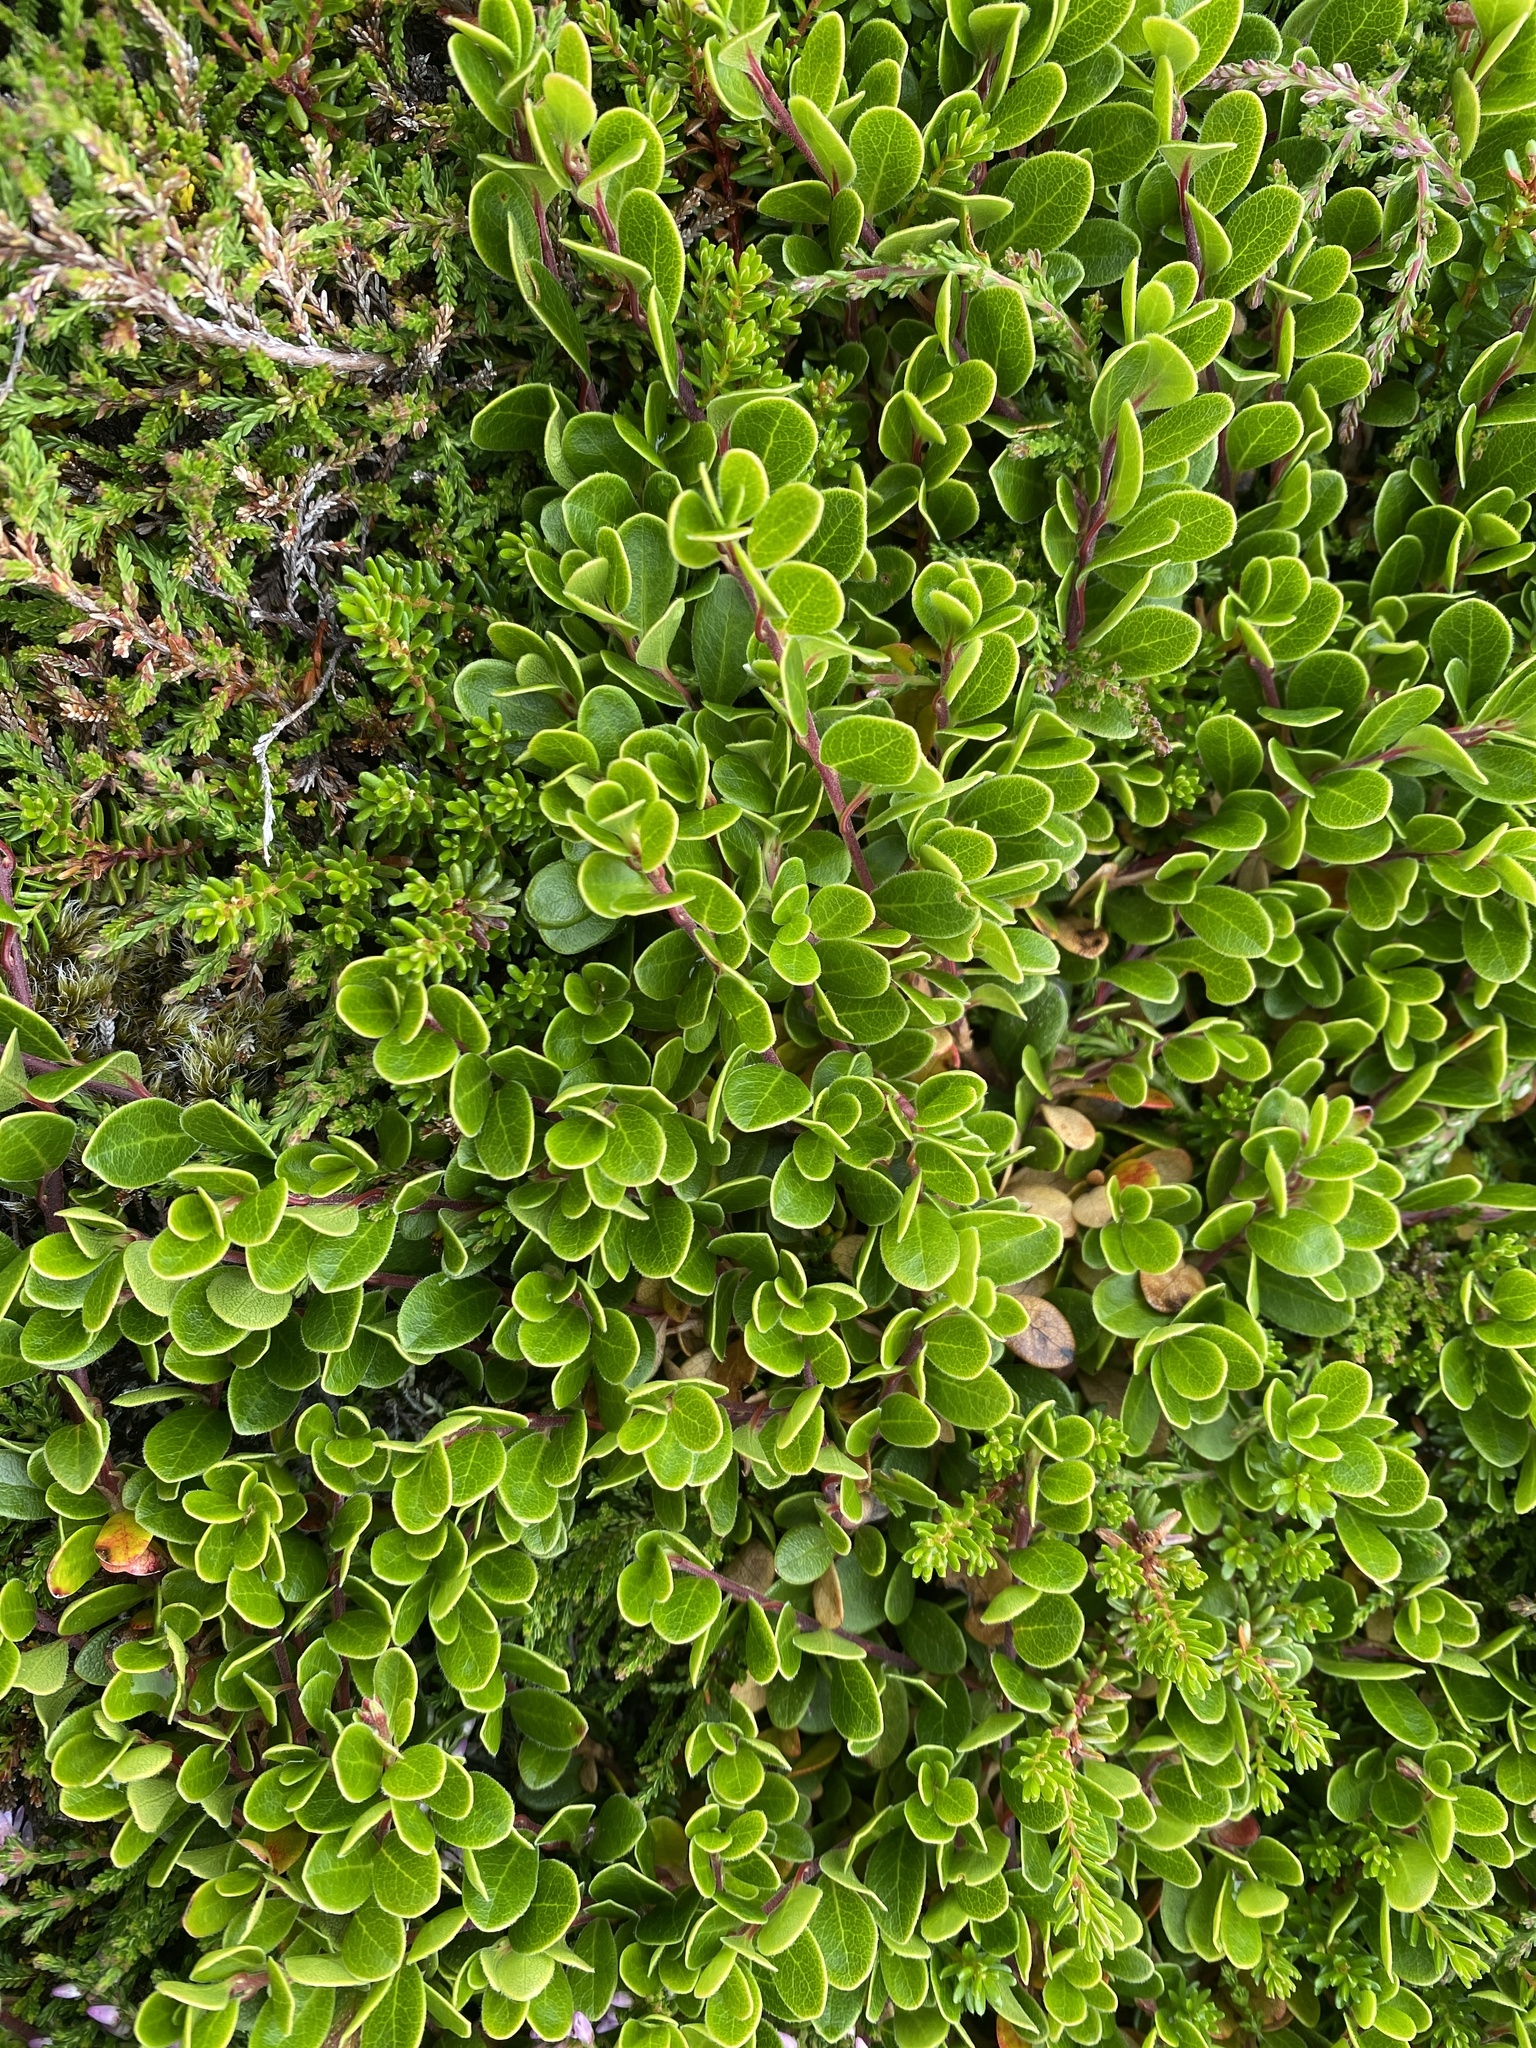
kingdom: Plantae
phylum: Tracheophyta
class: Magnoliopsida
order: Ericales
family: Ericaceae
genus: Arctostaphylos
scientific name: Arctostaphylos uva-ursi
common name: Bearberry
